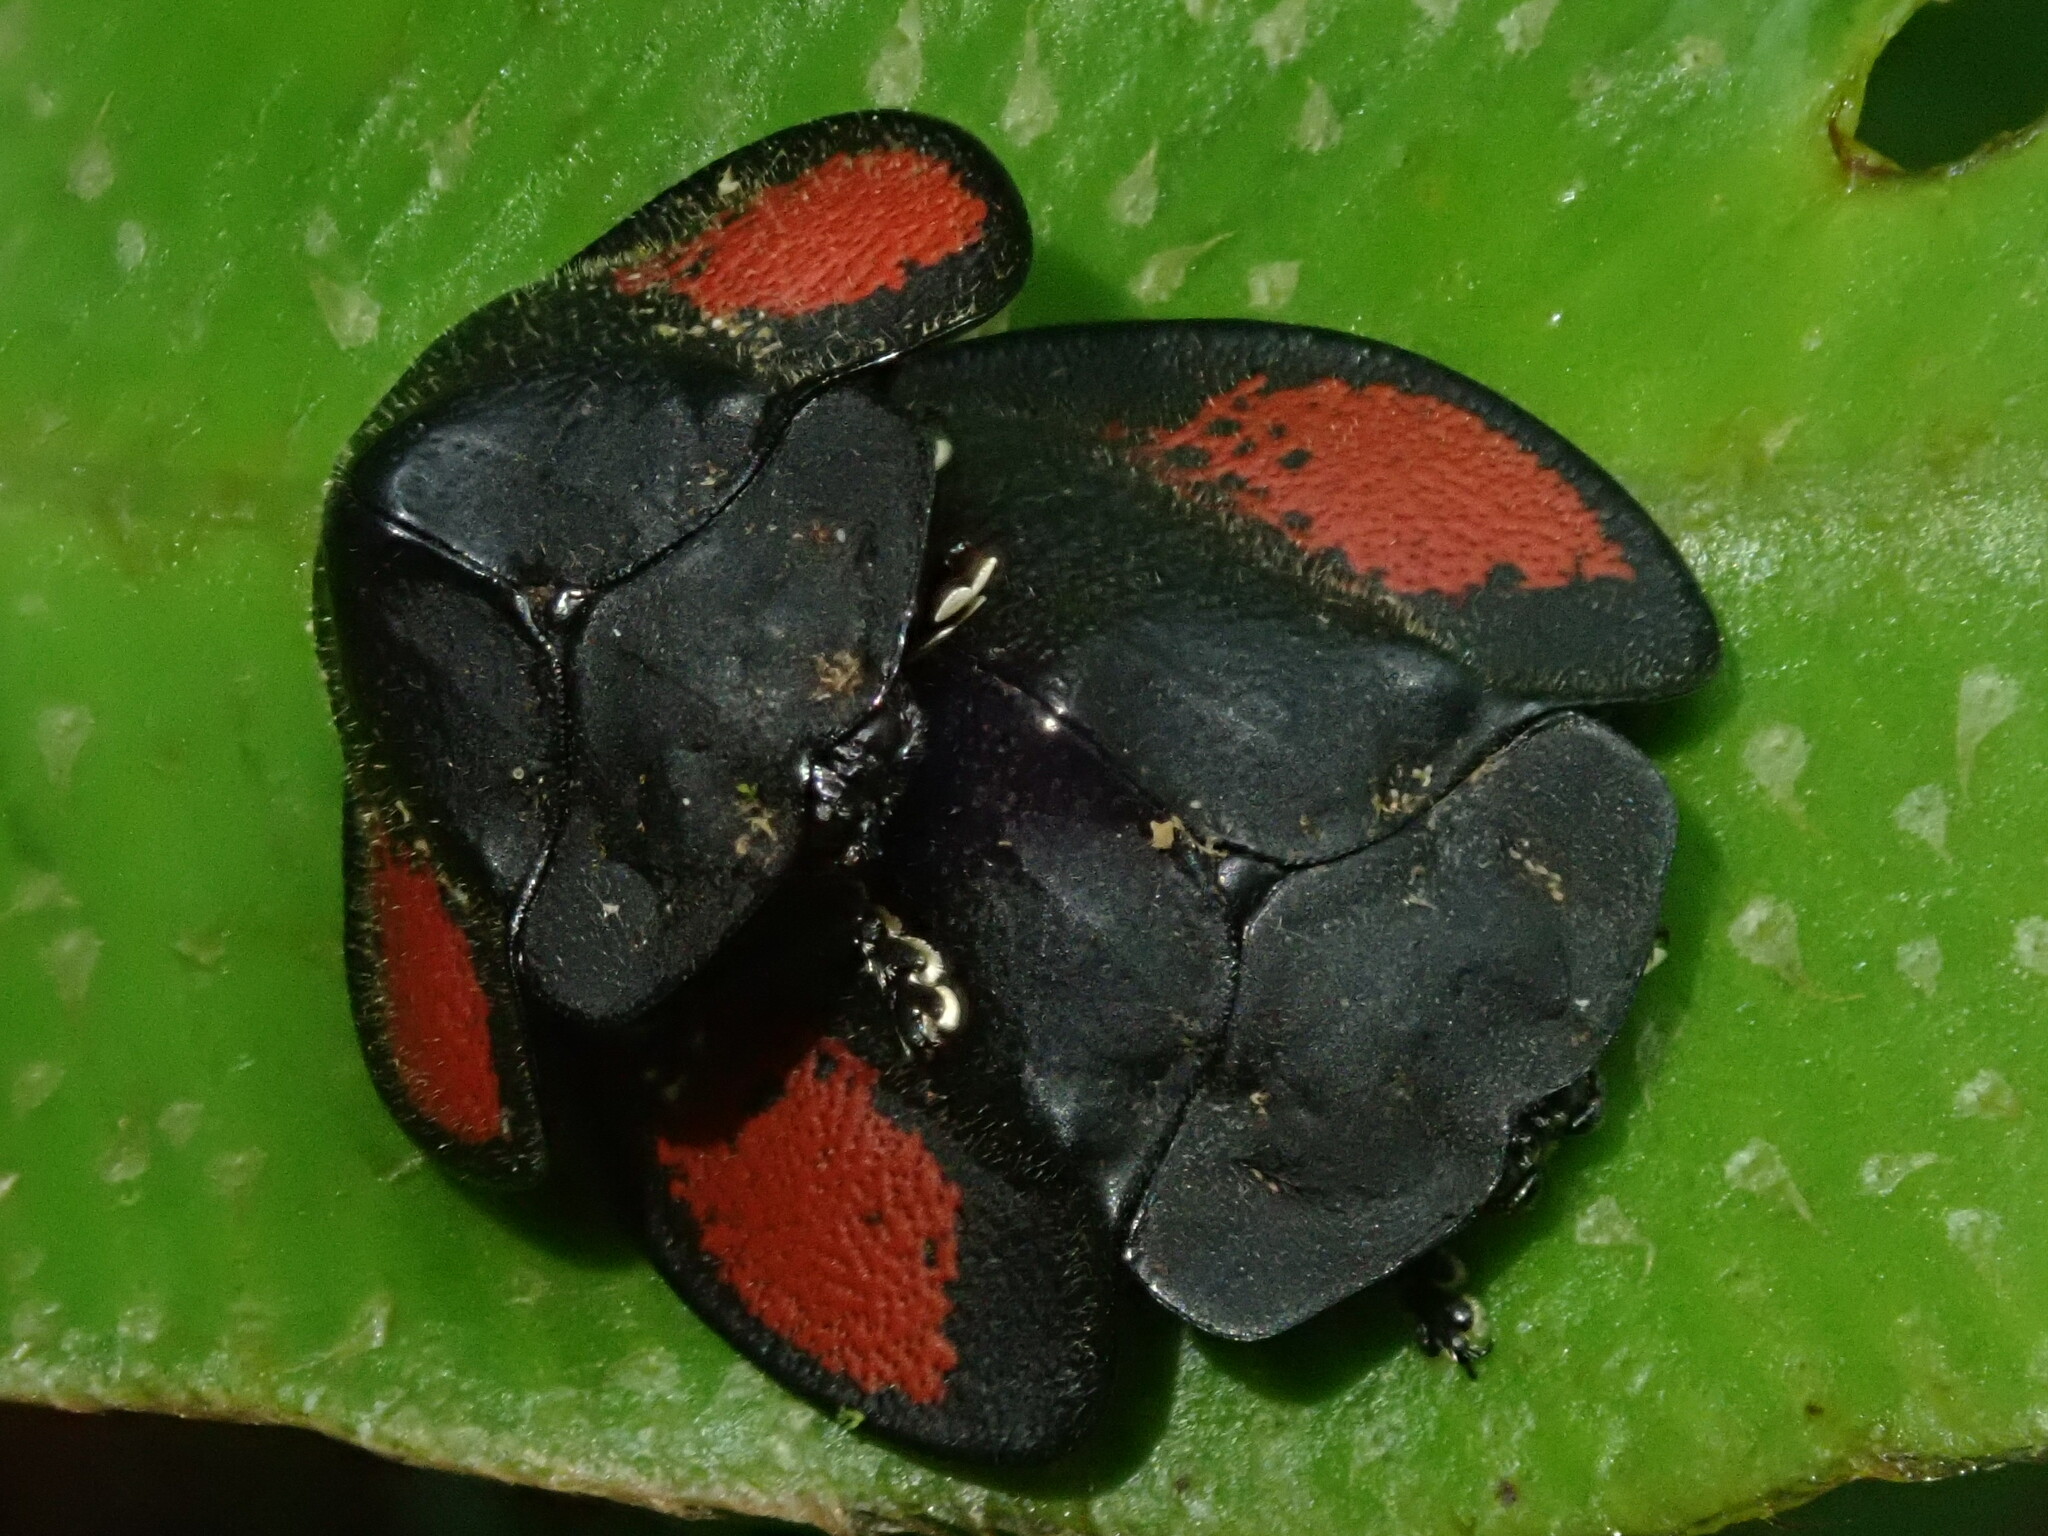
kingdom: Animalia
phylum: Arthropoda
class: Insecta
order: Coleoptera
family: Chrysomelidae
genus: Cyrtonota
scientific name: Cyrtonota deliciosa
